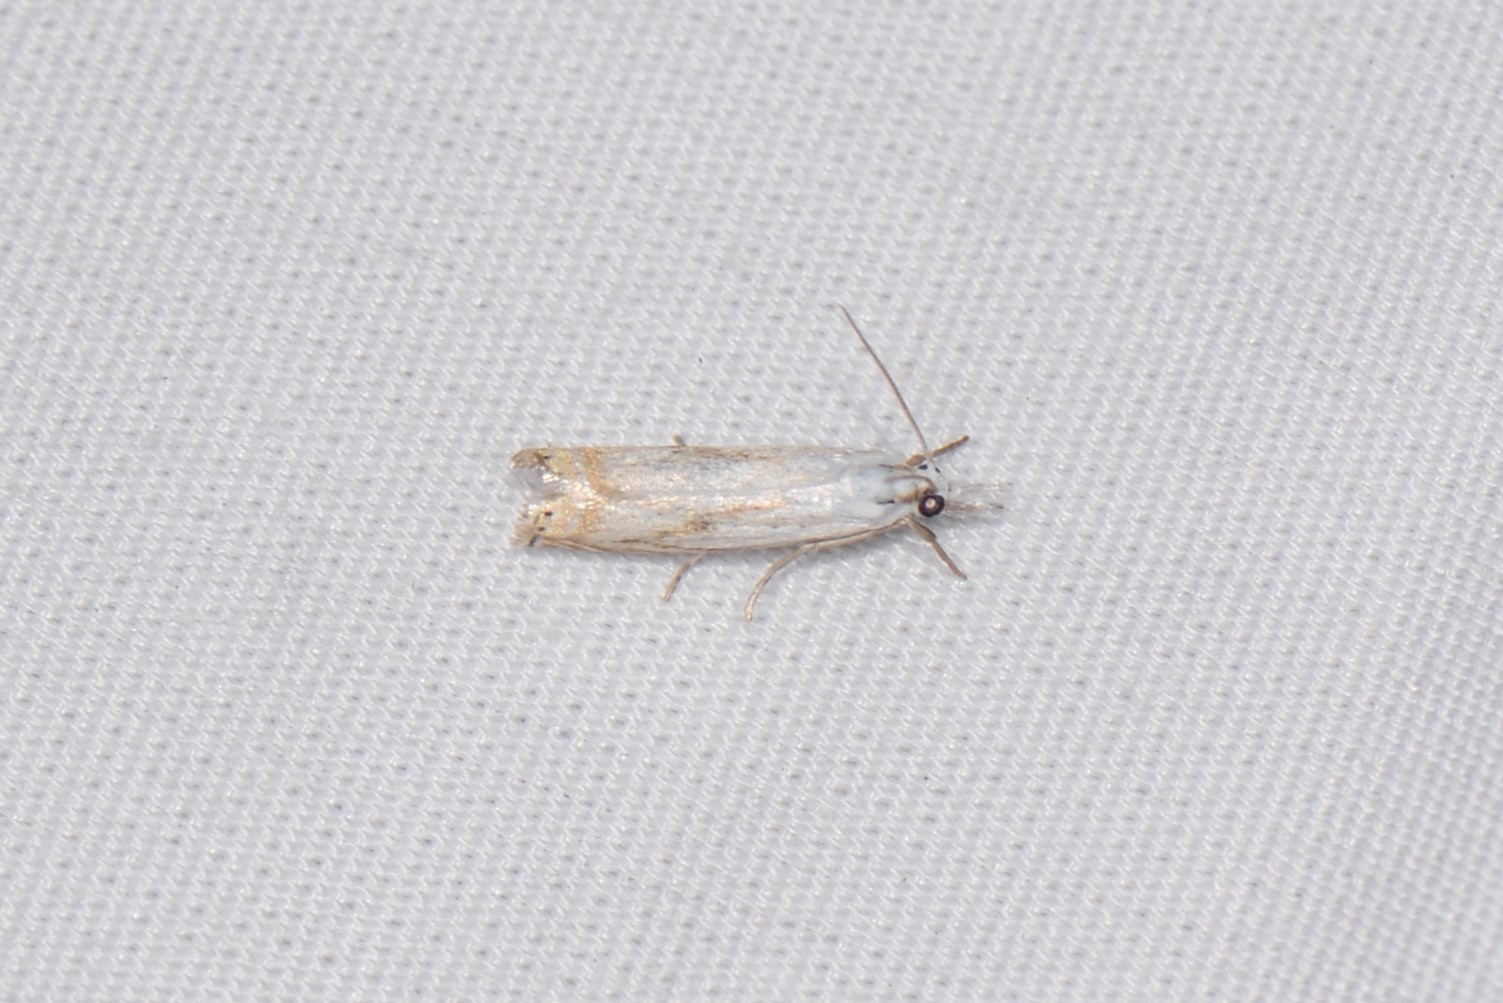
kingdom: Animalia
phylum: Arthropoda
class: Insecta
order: Lepidoptera
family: Crambidae
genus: Crambus
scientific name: Crambus albellus
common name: Small white grass-veneer
